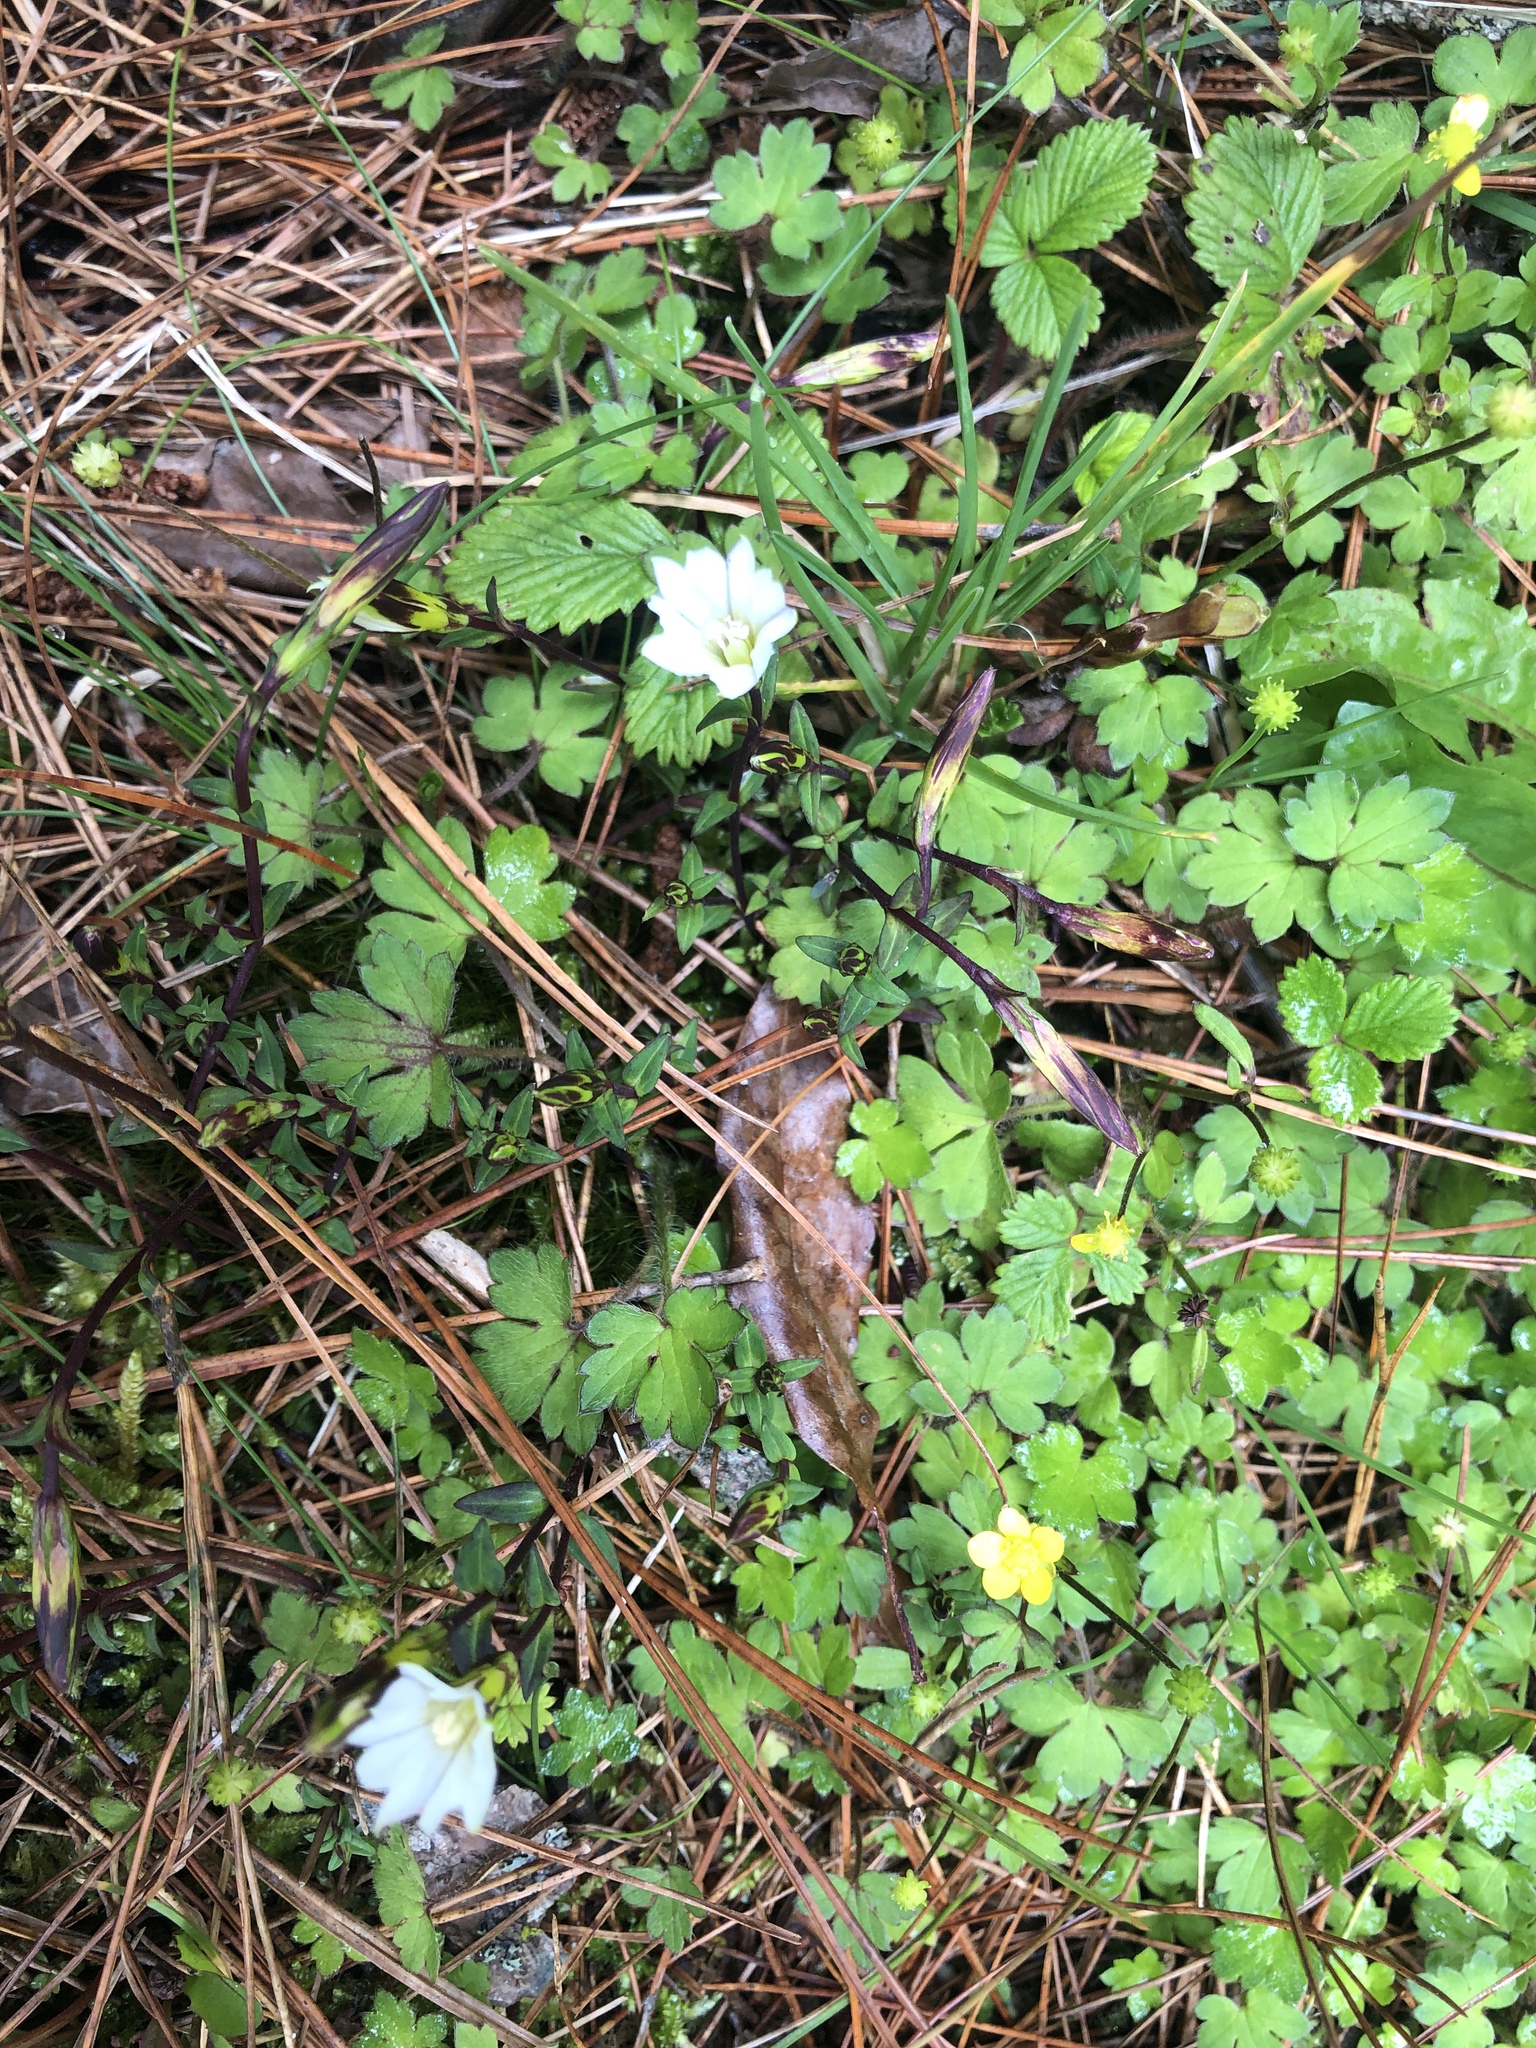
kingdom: Plantae
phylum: Tracheophyta
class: Magnoliopsida
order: Gentianales
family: Gentianaceae
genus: Gentiana
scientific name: Gentiana flavomaculata
